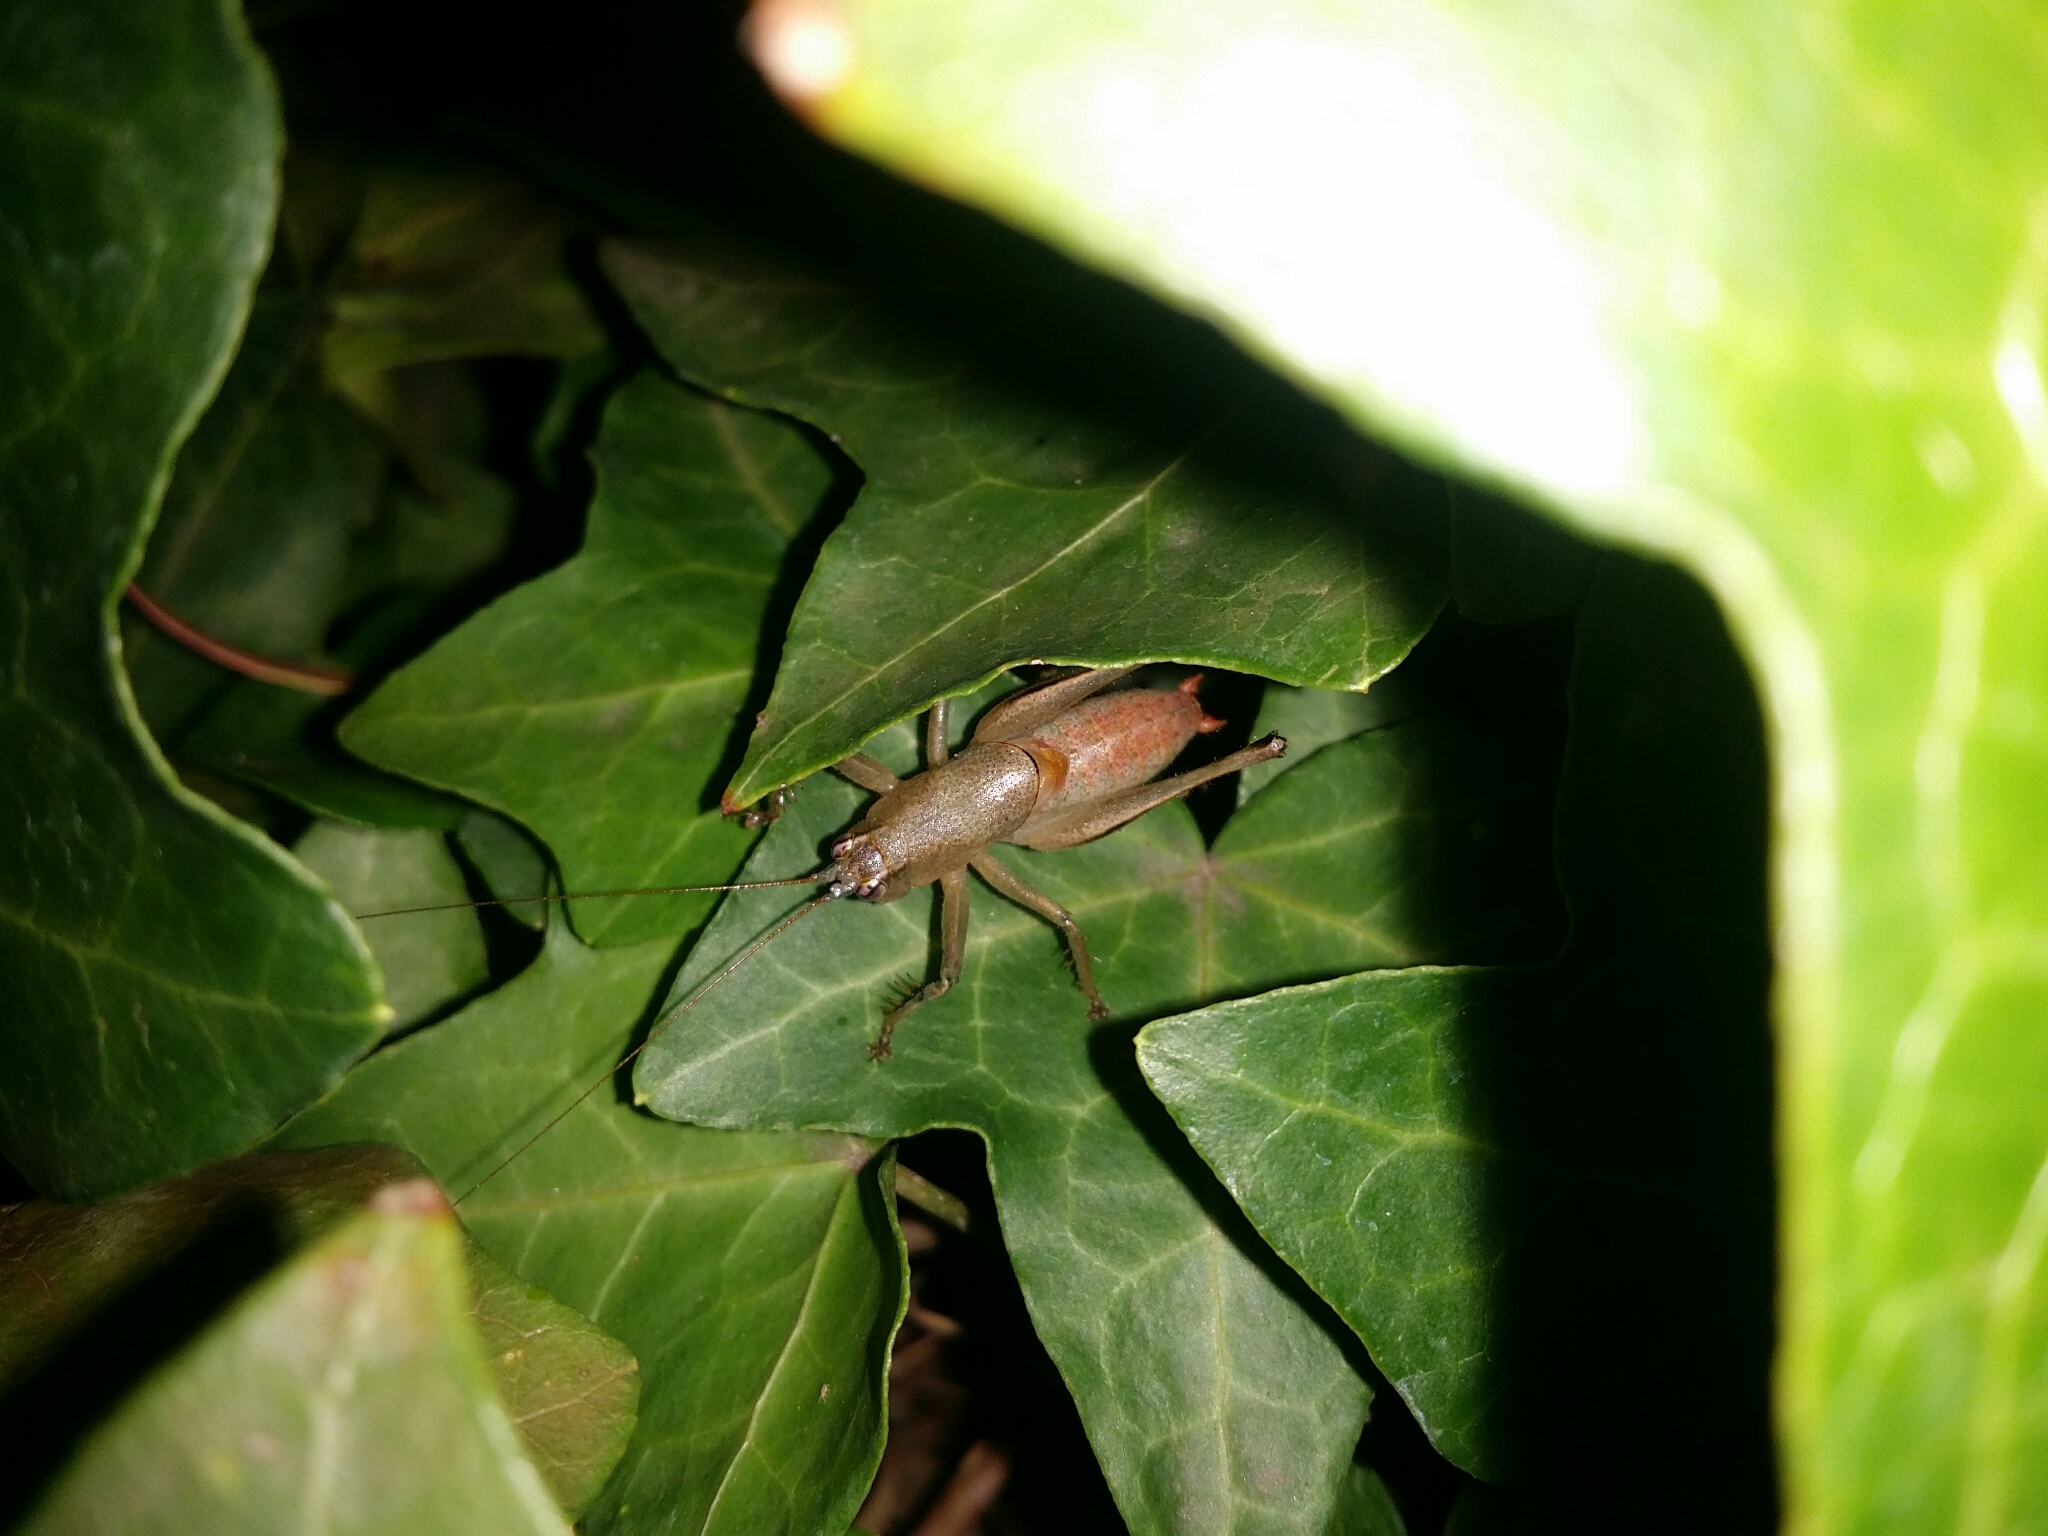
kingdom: Animalia
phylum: Arthropoda
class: Insecta
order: Orthoptera
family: Tettigoniidae
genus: Requena
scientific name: Requena verticalis
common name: Common western requena
